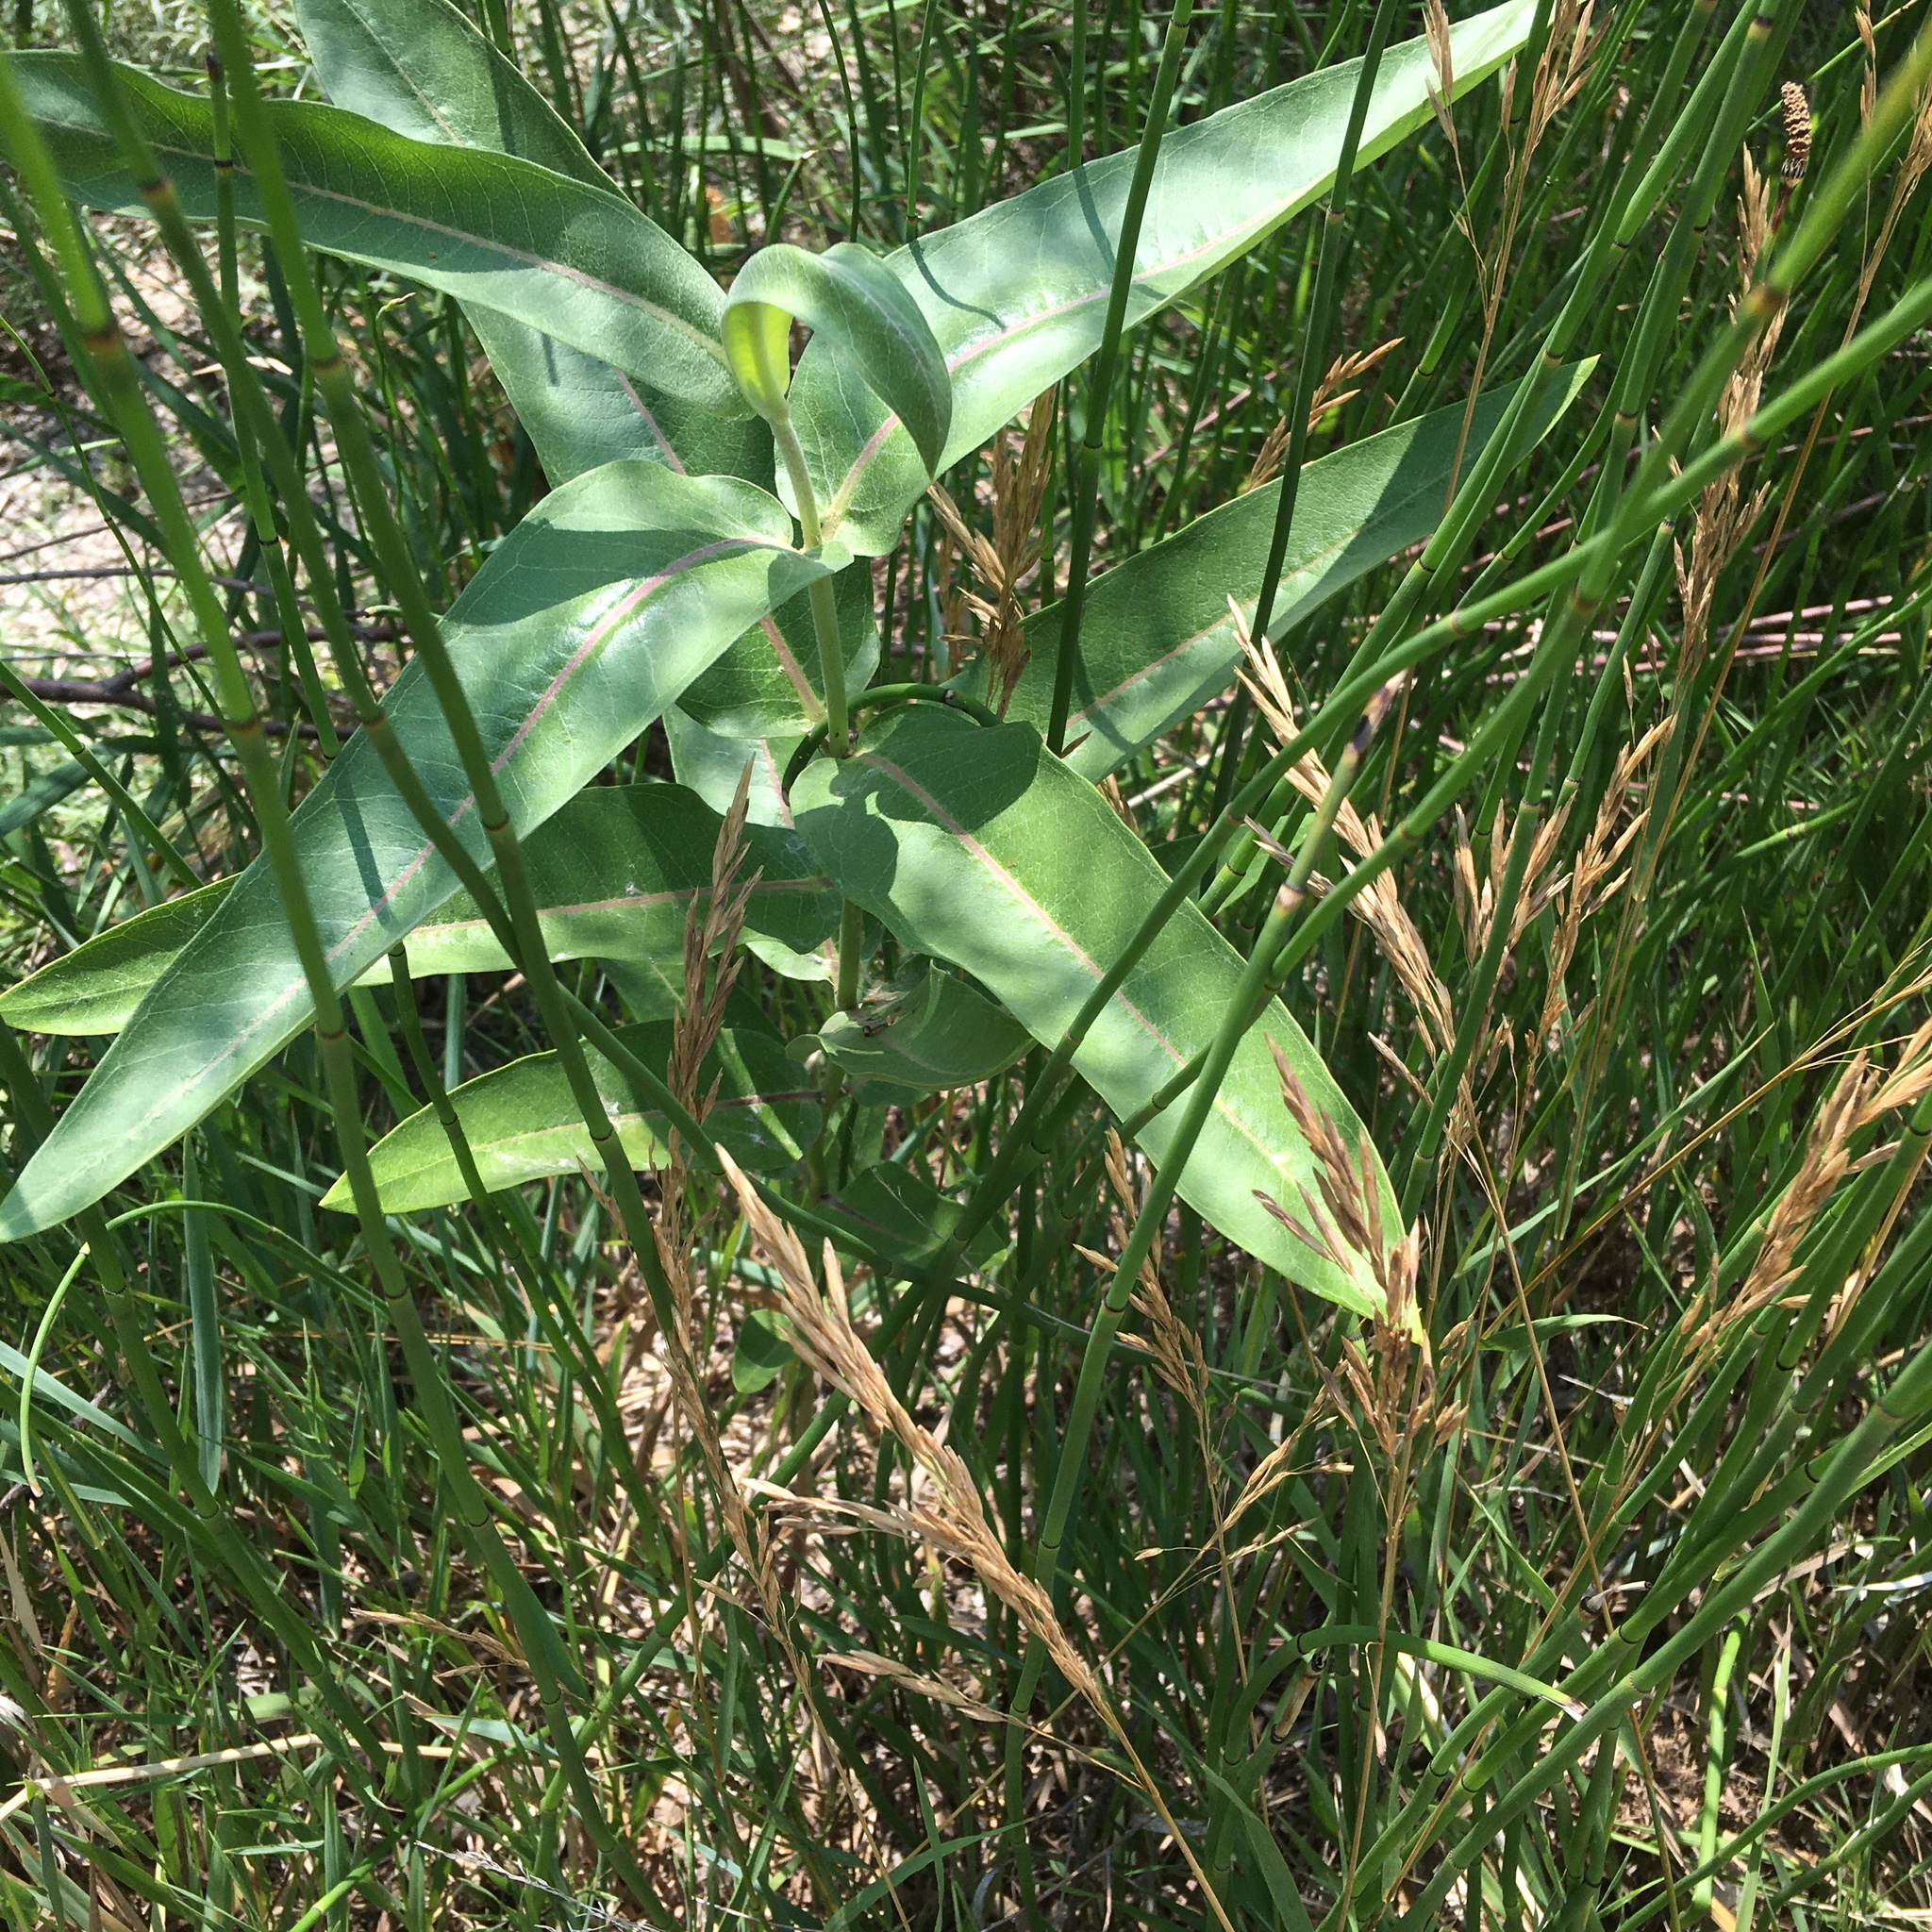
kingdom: Plantae
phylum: Tracheophyta
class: Magnoliopsida
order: Gentianales
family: Apocynaceae
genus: Asclepias
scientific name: Asclepias speciosa
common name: Showy milkweed
